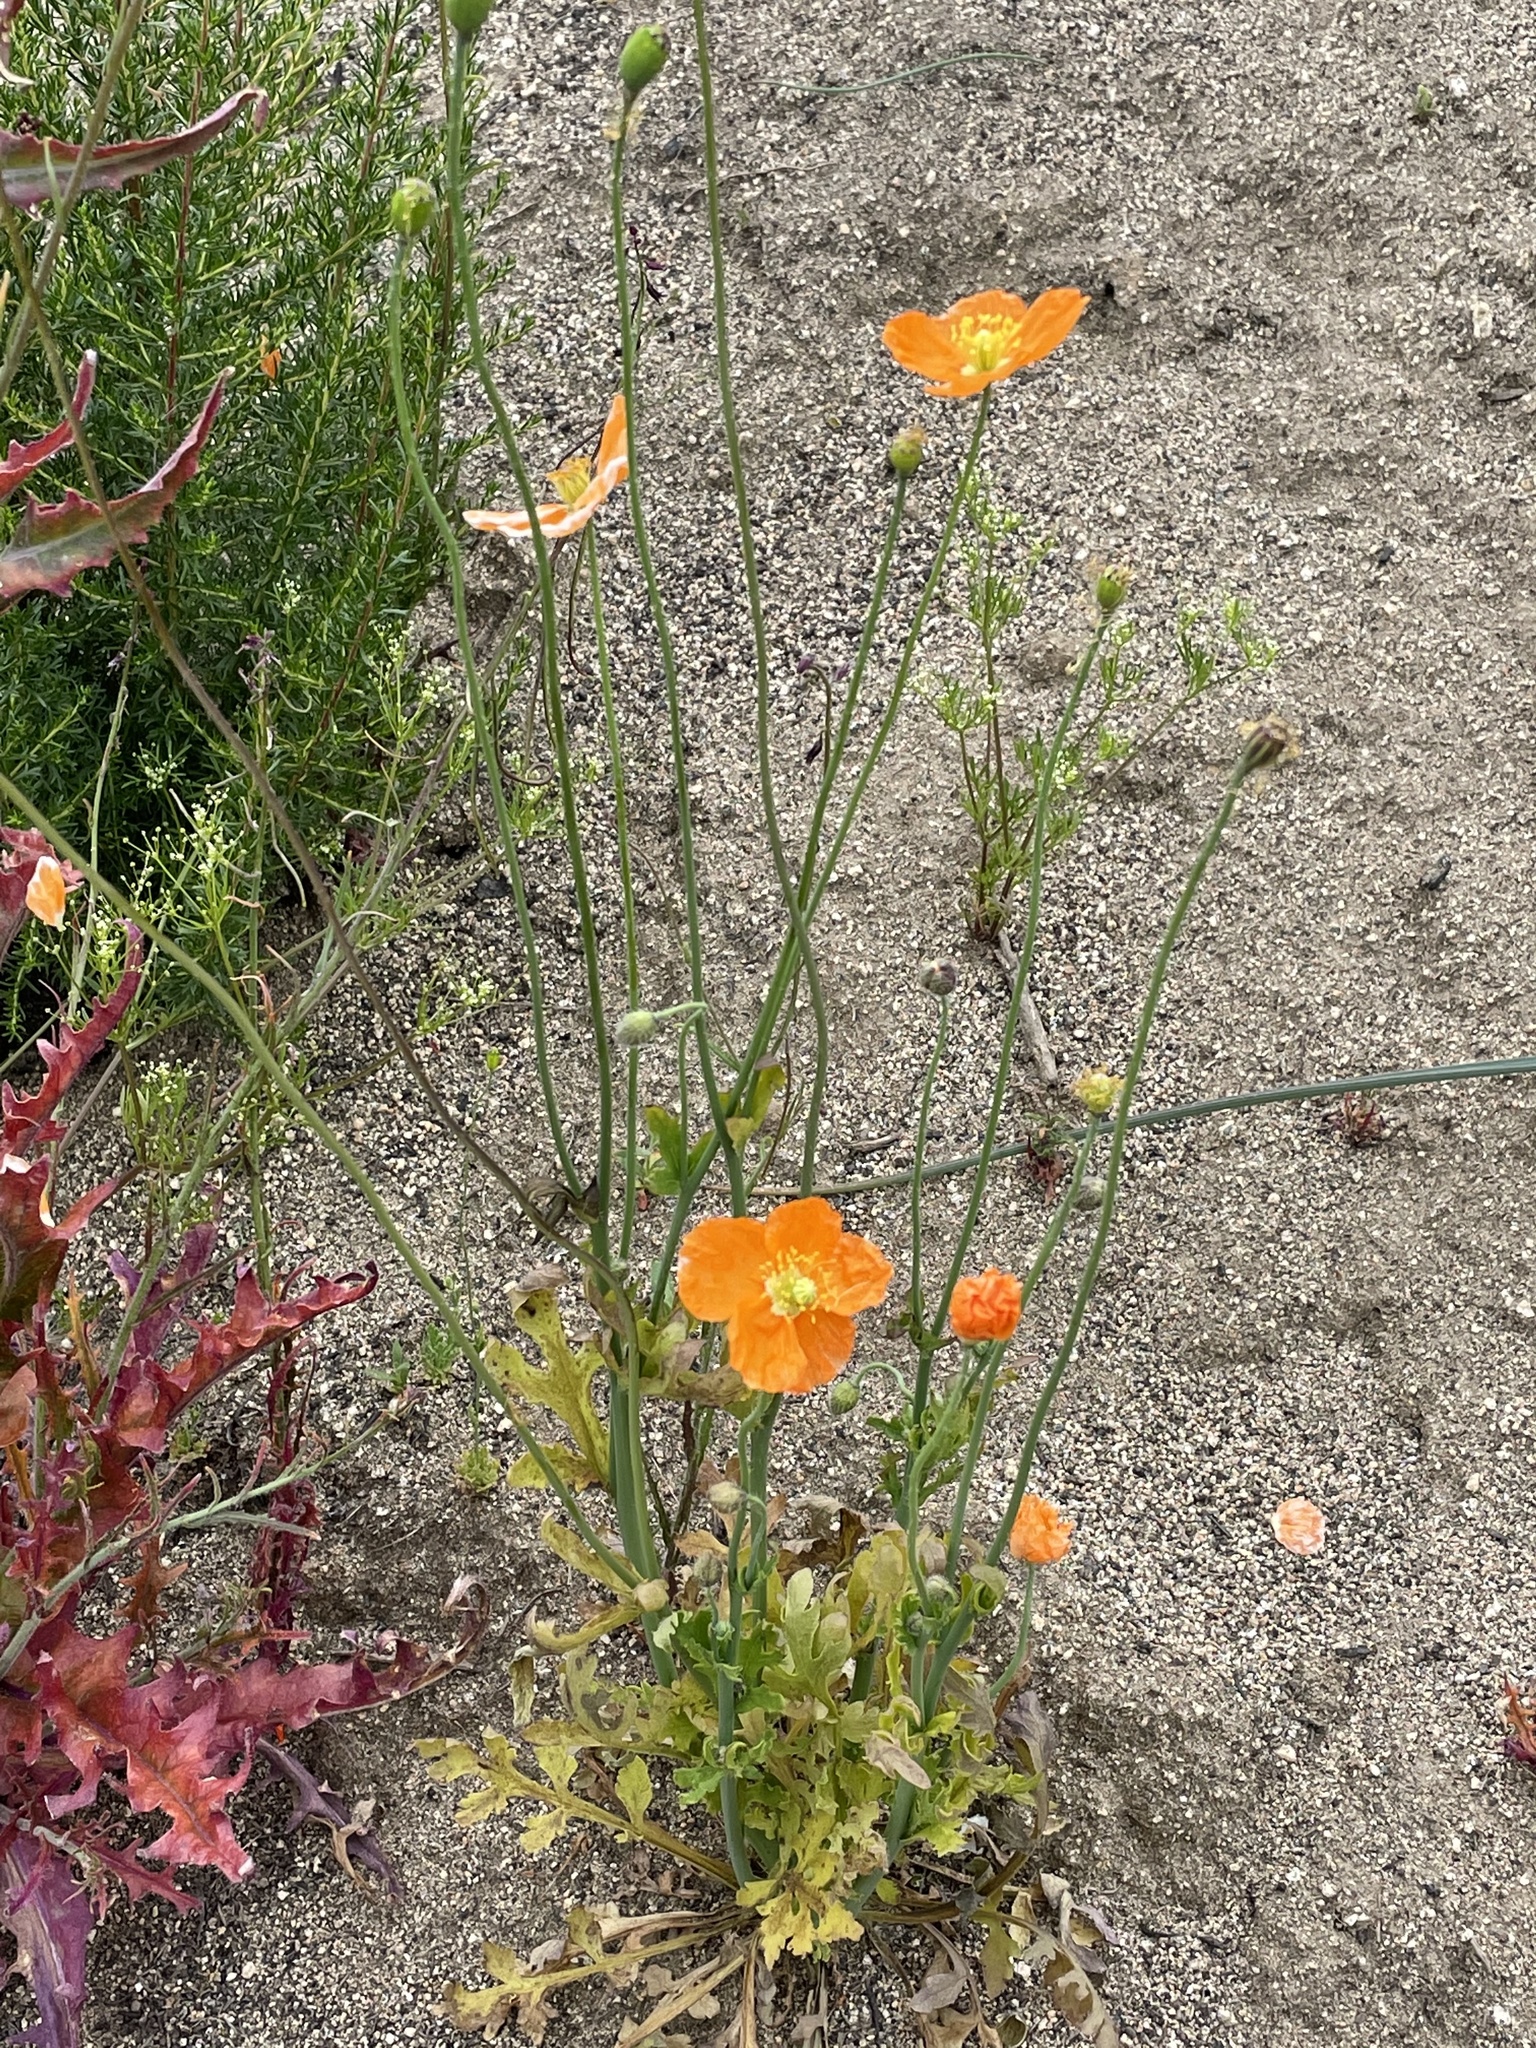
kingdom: Plantae
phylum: Tracheophyta
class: Magnoliopsida
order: Ranunculales
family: Papaveraceae
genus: Papaver
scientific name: Papaver californicum
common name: Fire poppy
